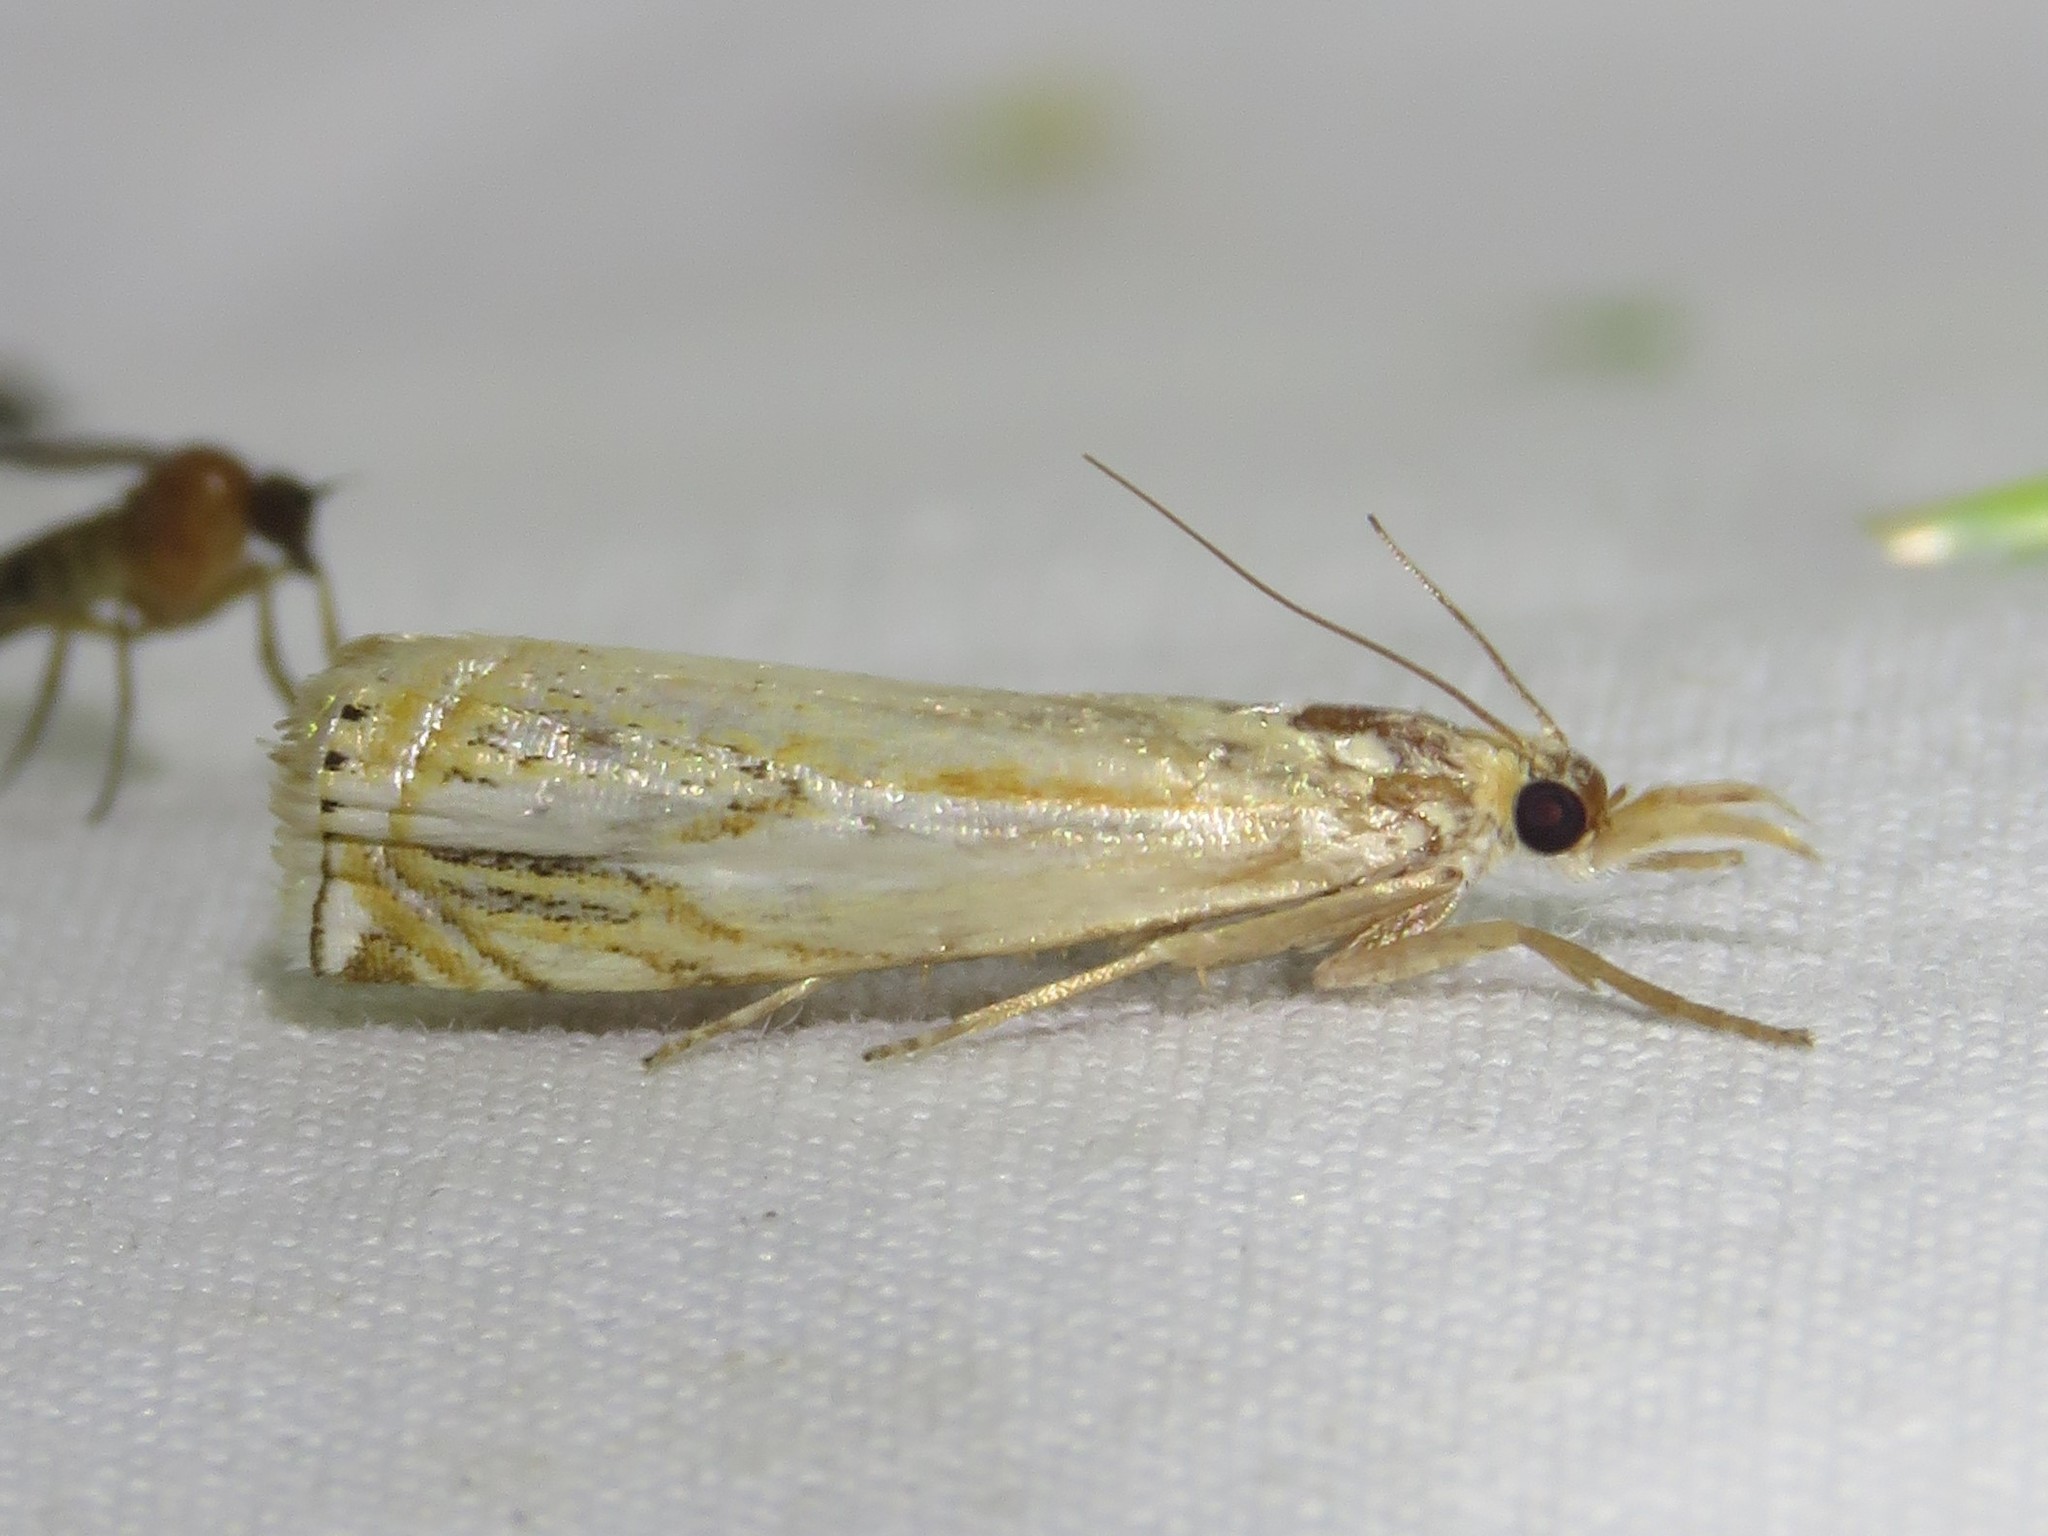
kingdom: Animalia
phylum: Arthropoda
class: Insecta
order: Lepidoptera
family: Crambidae
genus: Crambus
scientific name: Crambus agitatellus
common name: Double-banded grass-veneer
